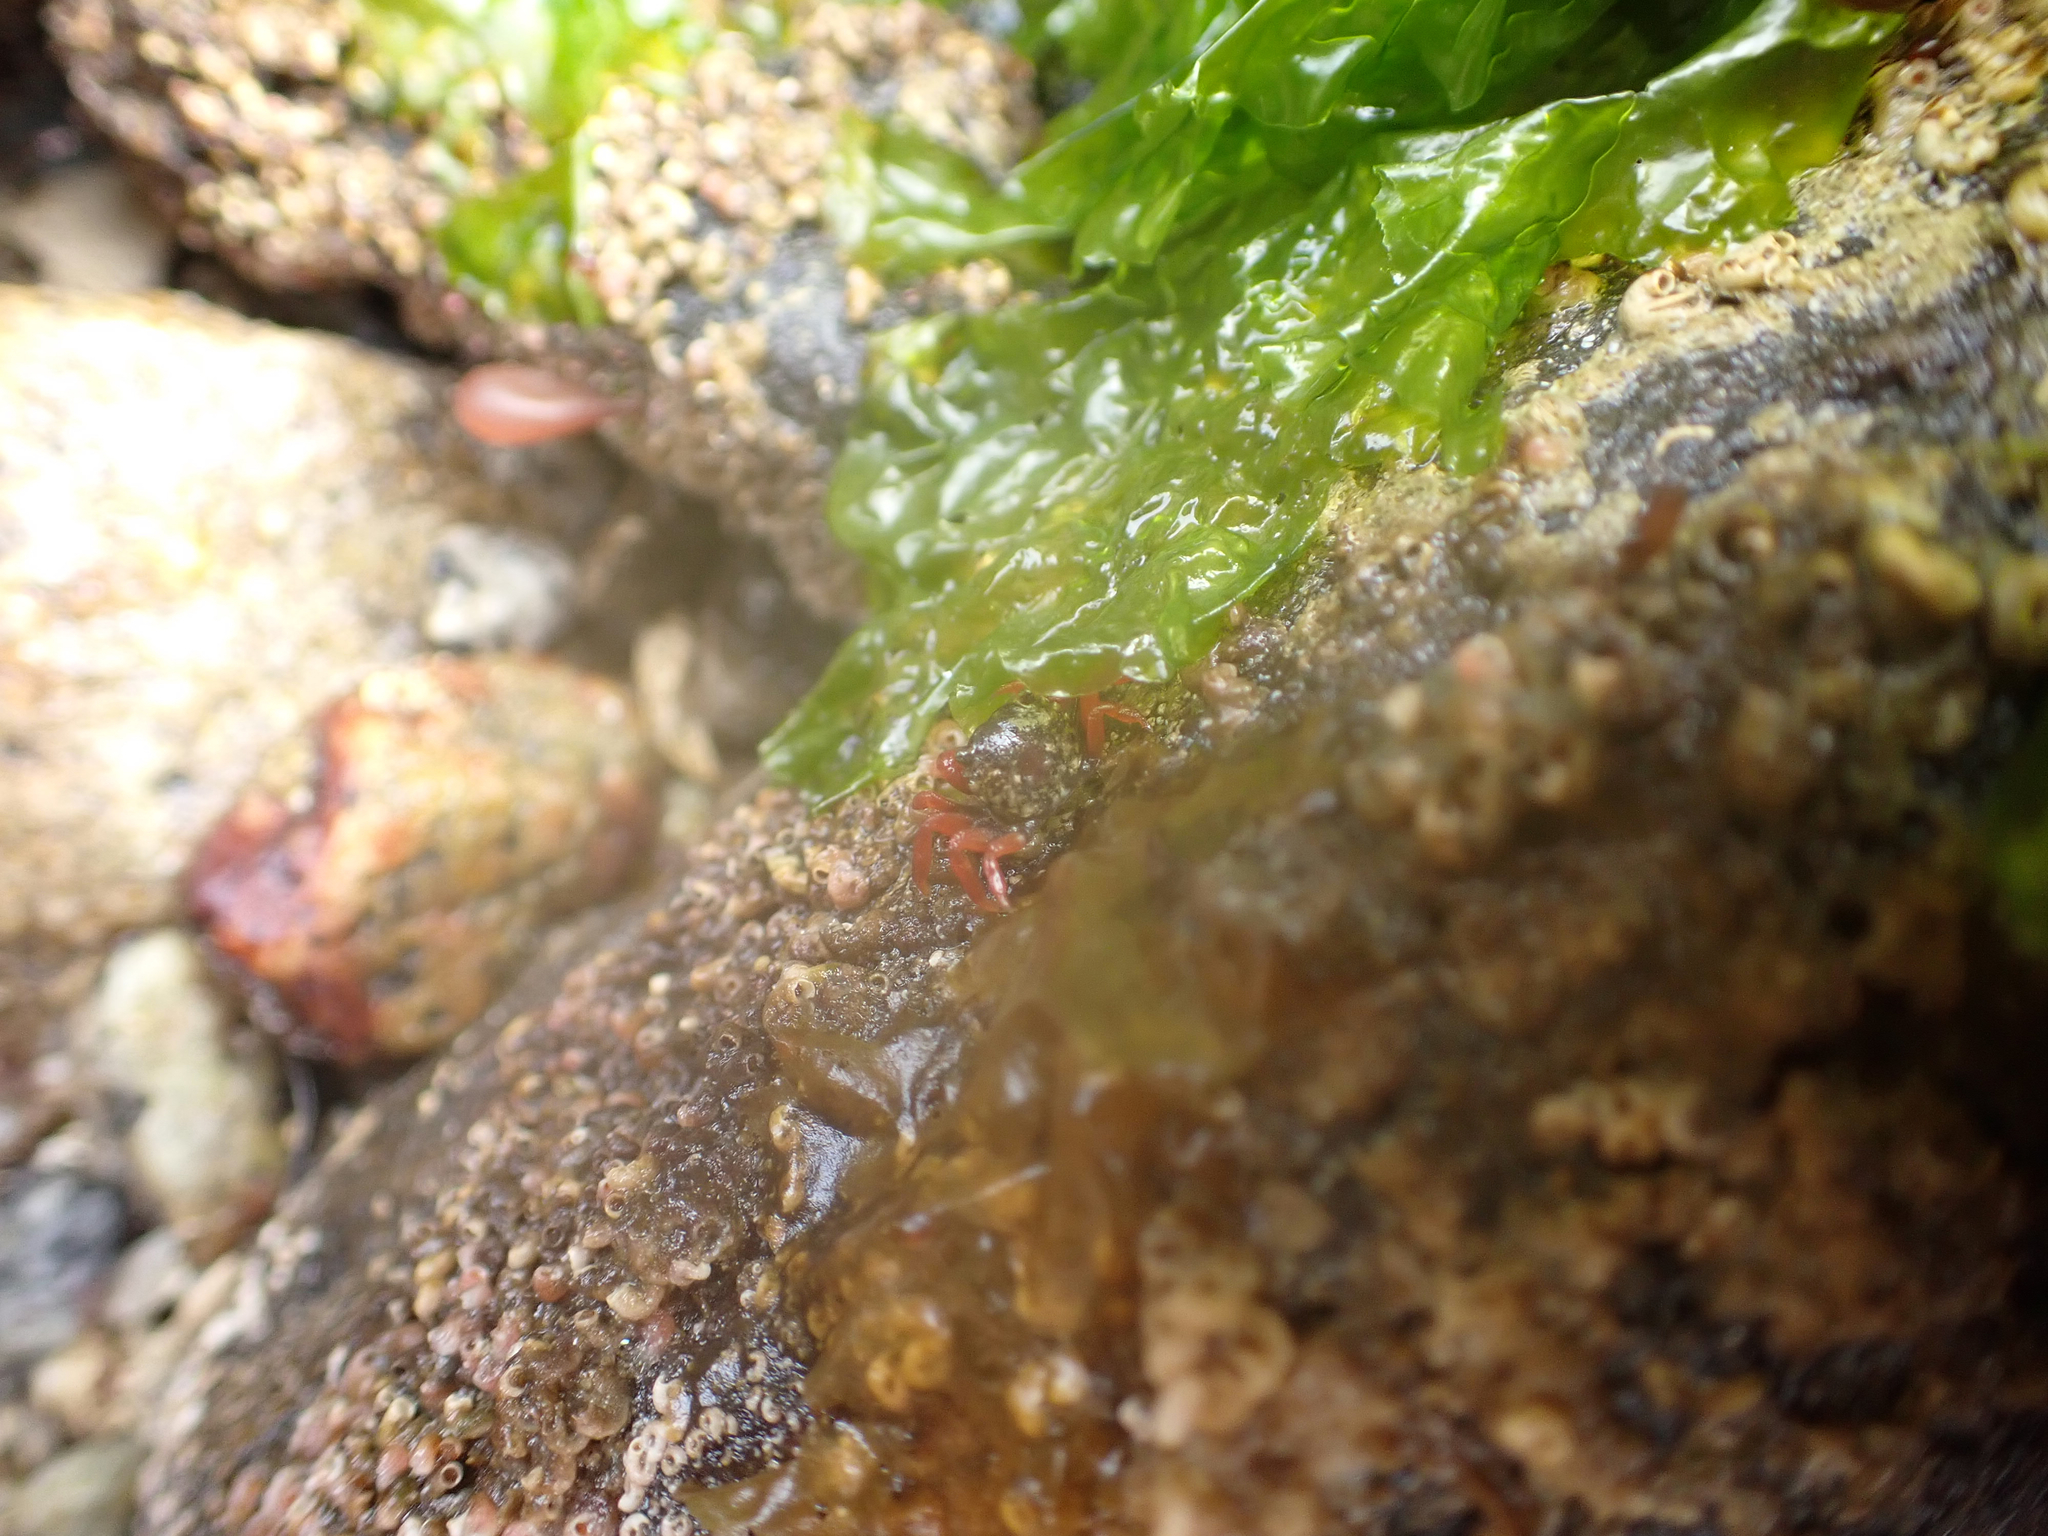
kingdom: Animalia
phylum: Arthropoda
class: Malacostraca
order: Decapoda
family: Varunidae
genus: Hemigrapsus
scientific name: Hemigrapsus oregonensis
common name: Yellow shore crab
